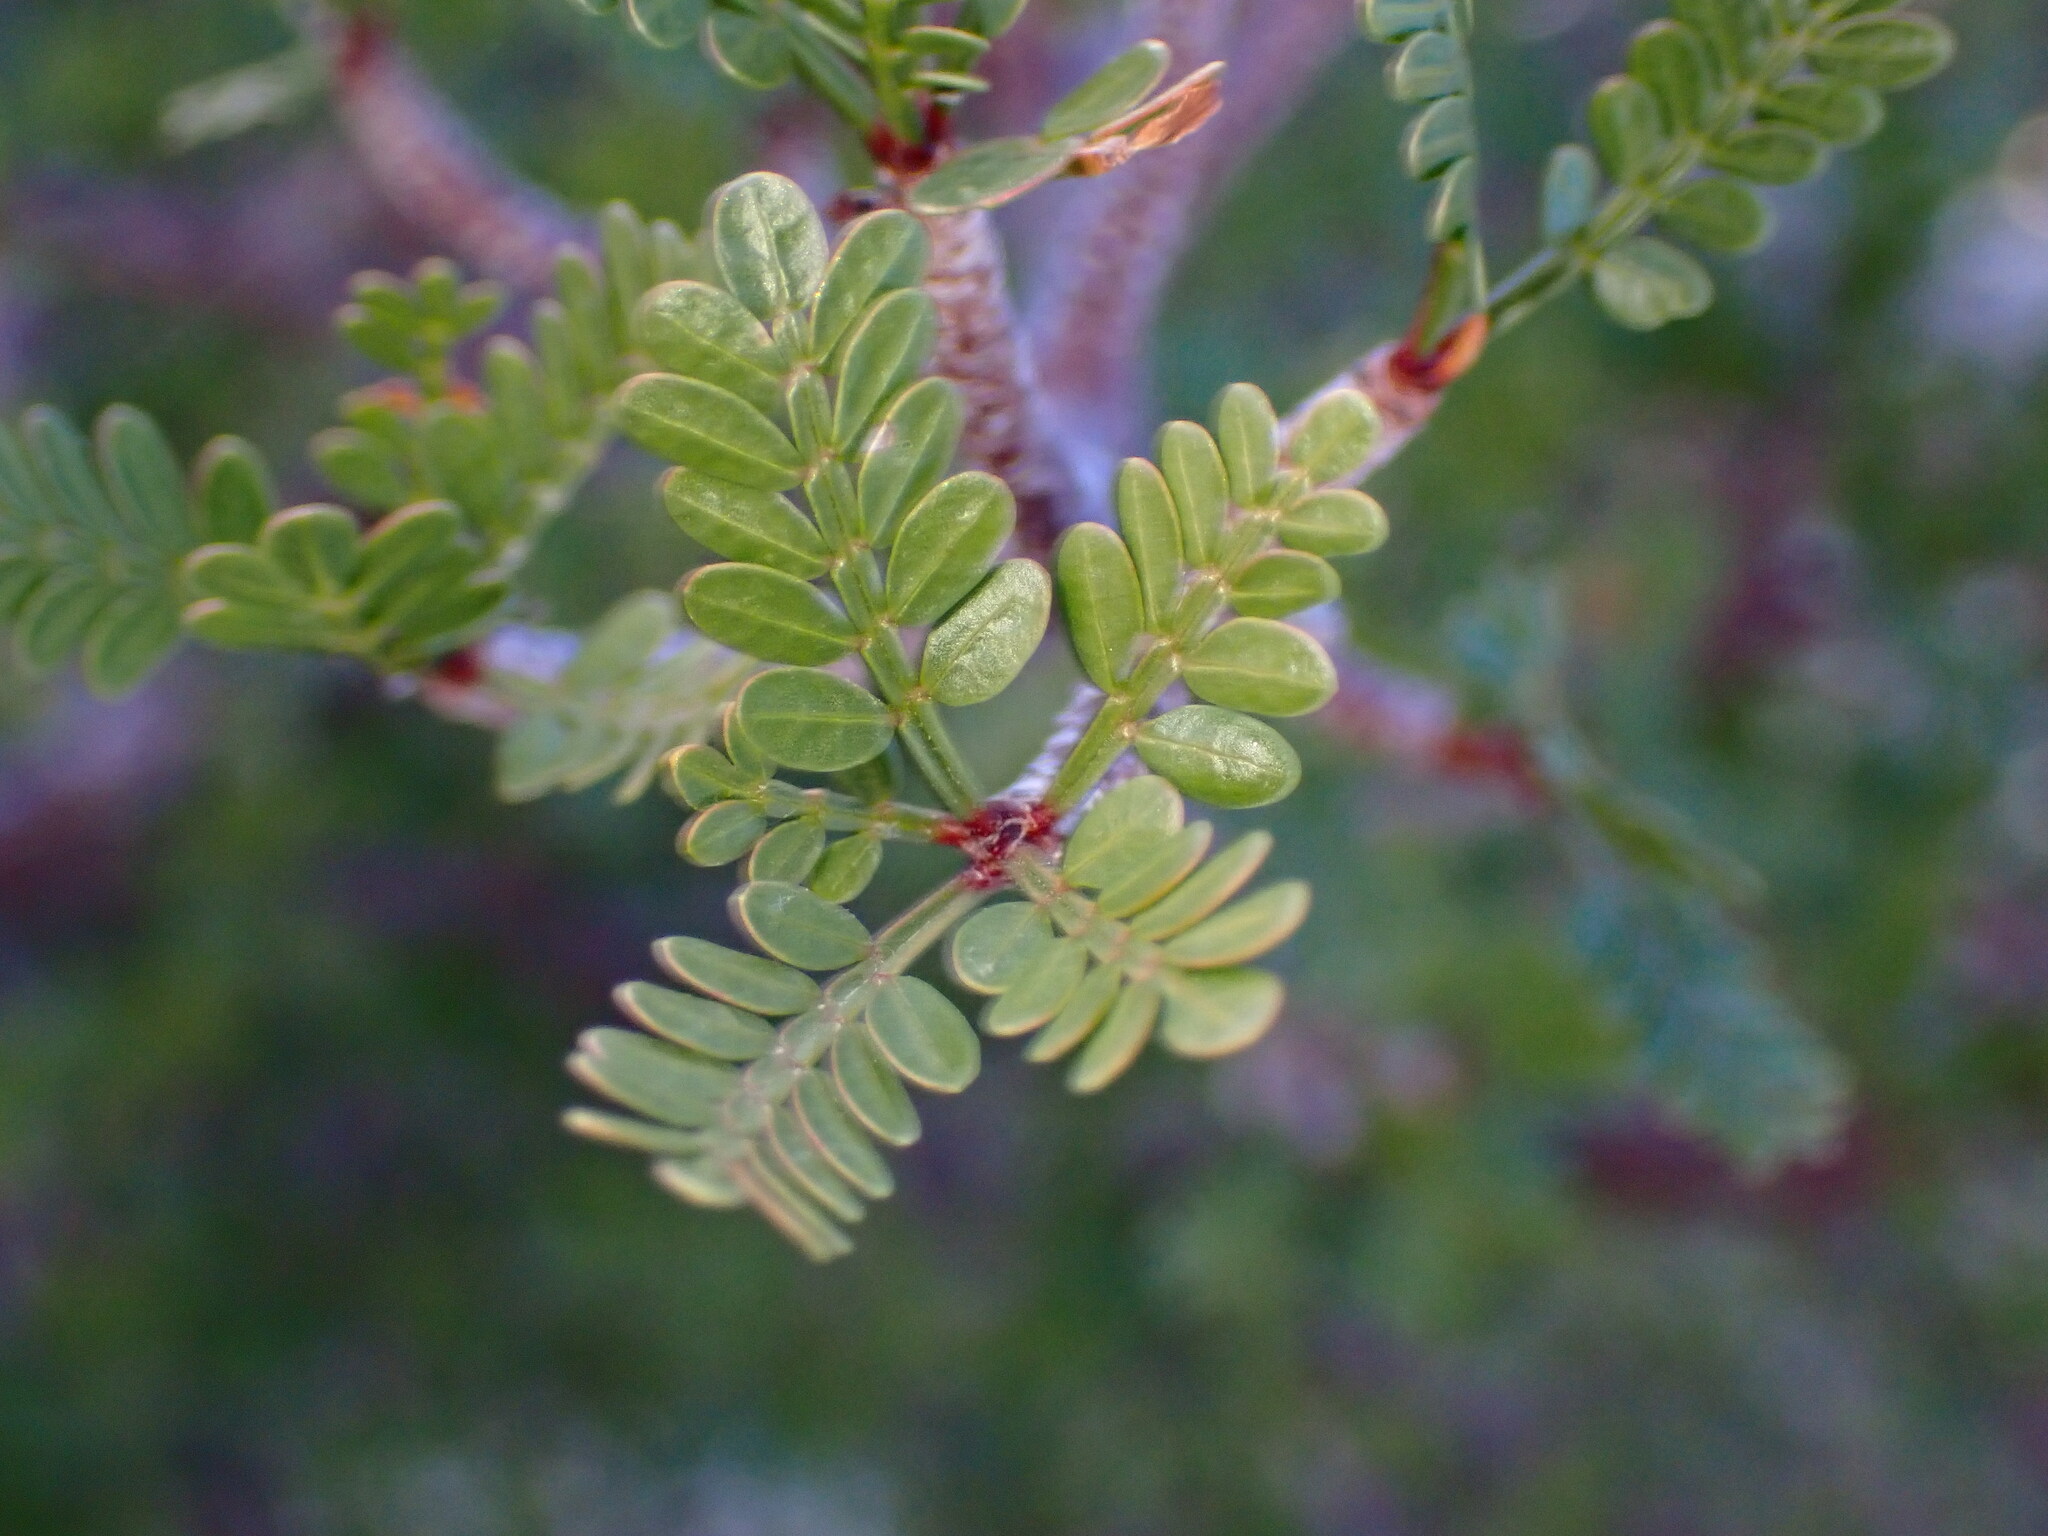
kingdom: Plantae
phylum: Tracheophyta
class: Magnoliopsida
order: Sapindales
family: Burseraceae
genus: Bursera
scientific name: Bursera microphylla
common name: Elephant tree
